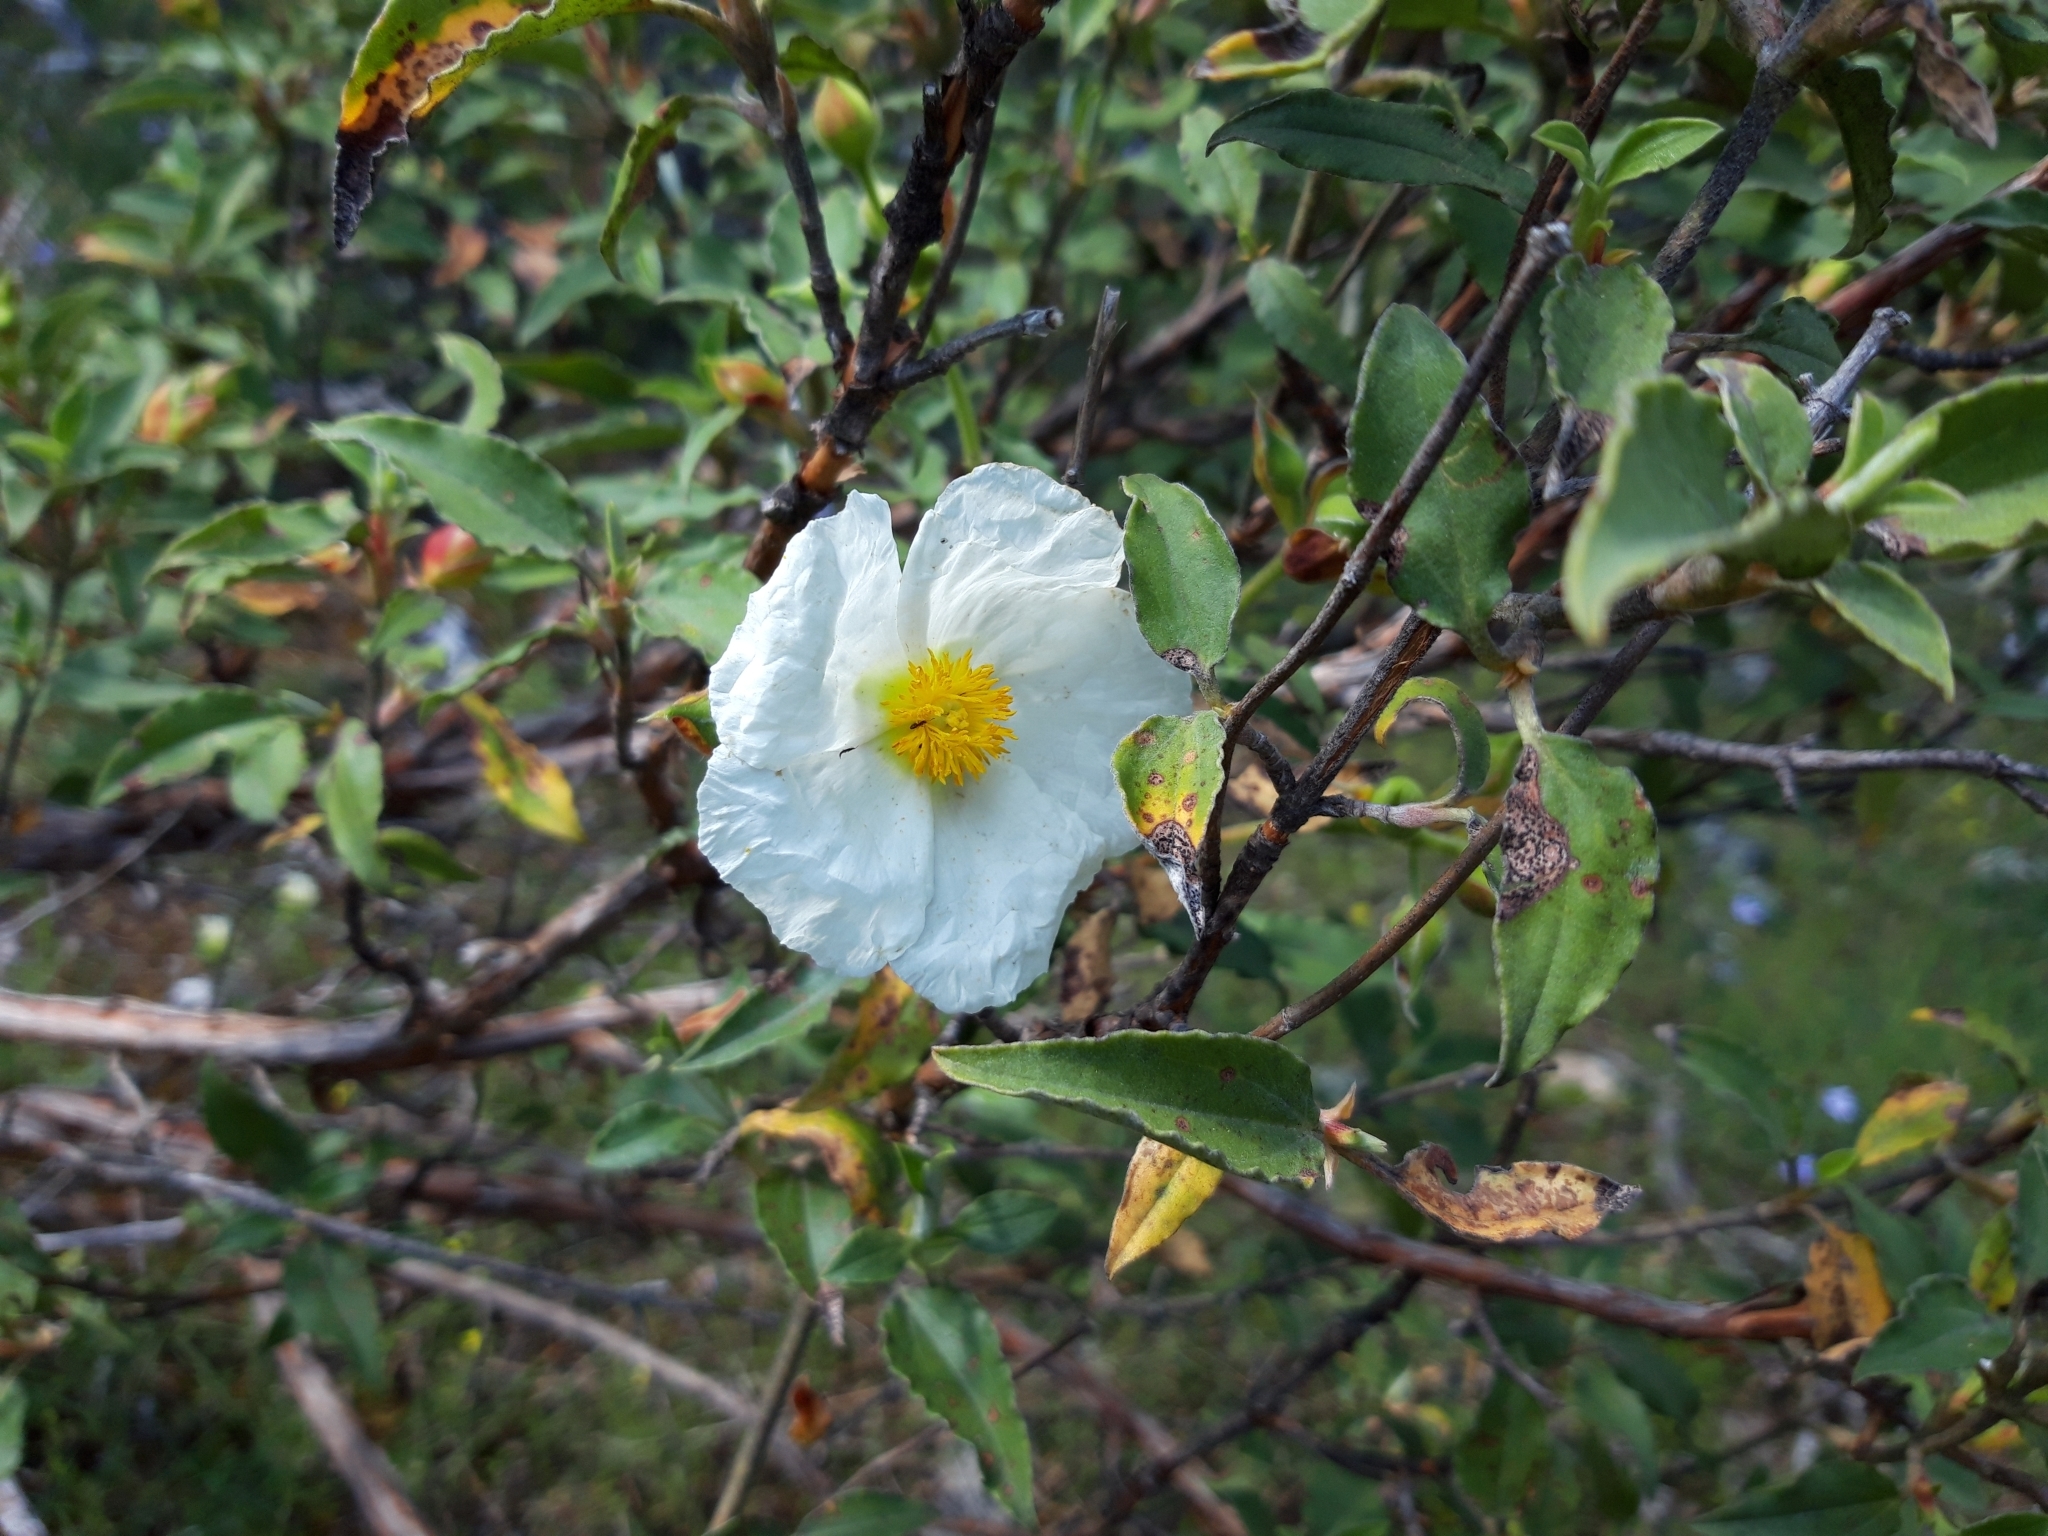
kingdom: Plantae
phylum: Tracheophyta
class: Magnoliopsida
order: Malvales
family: Cistaceae
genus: Cistus
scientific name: Cistus laurifolius
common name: Laurel-leaved cistus
